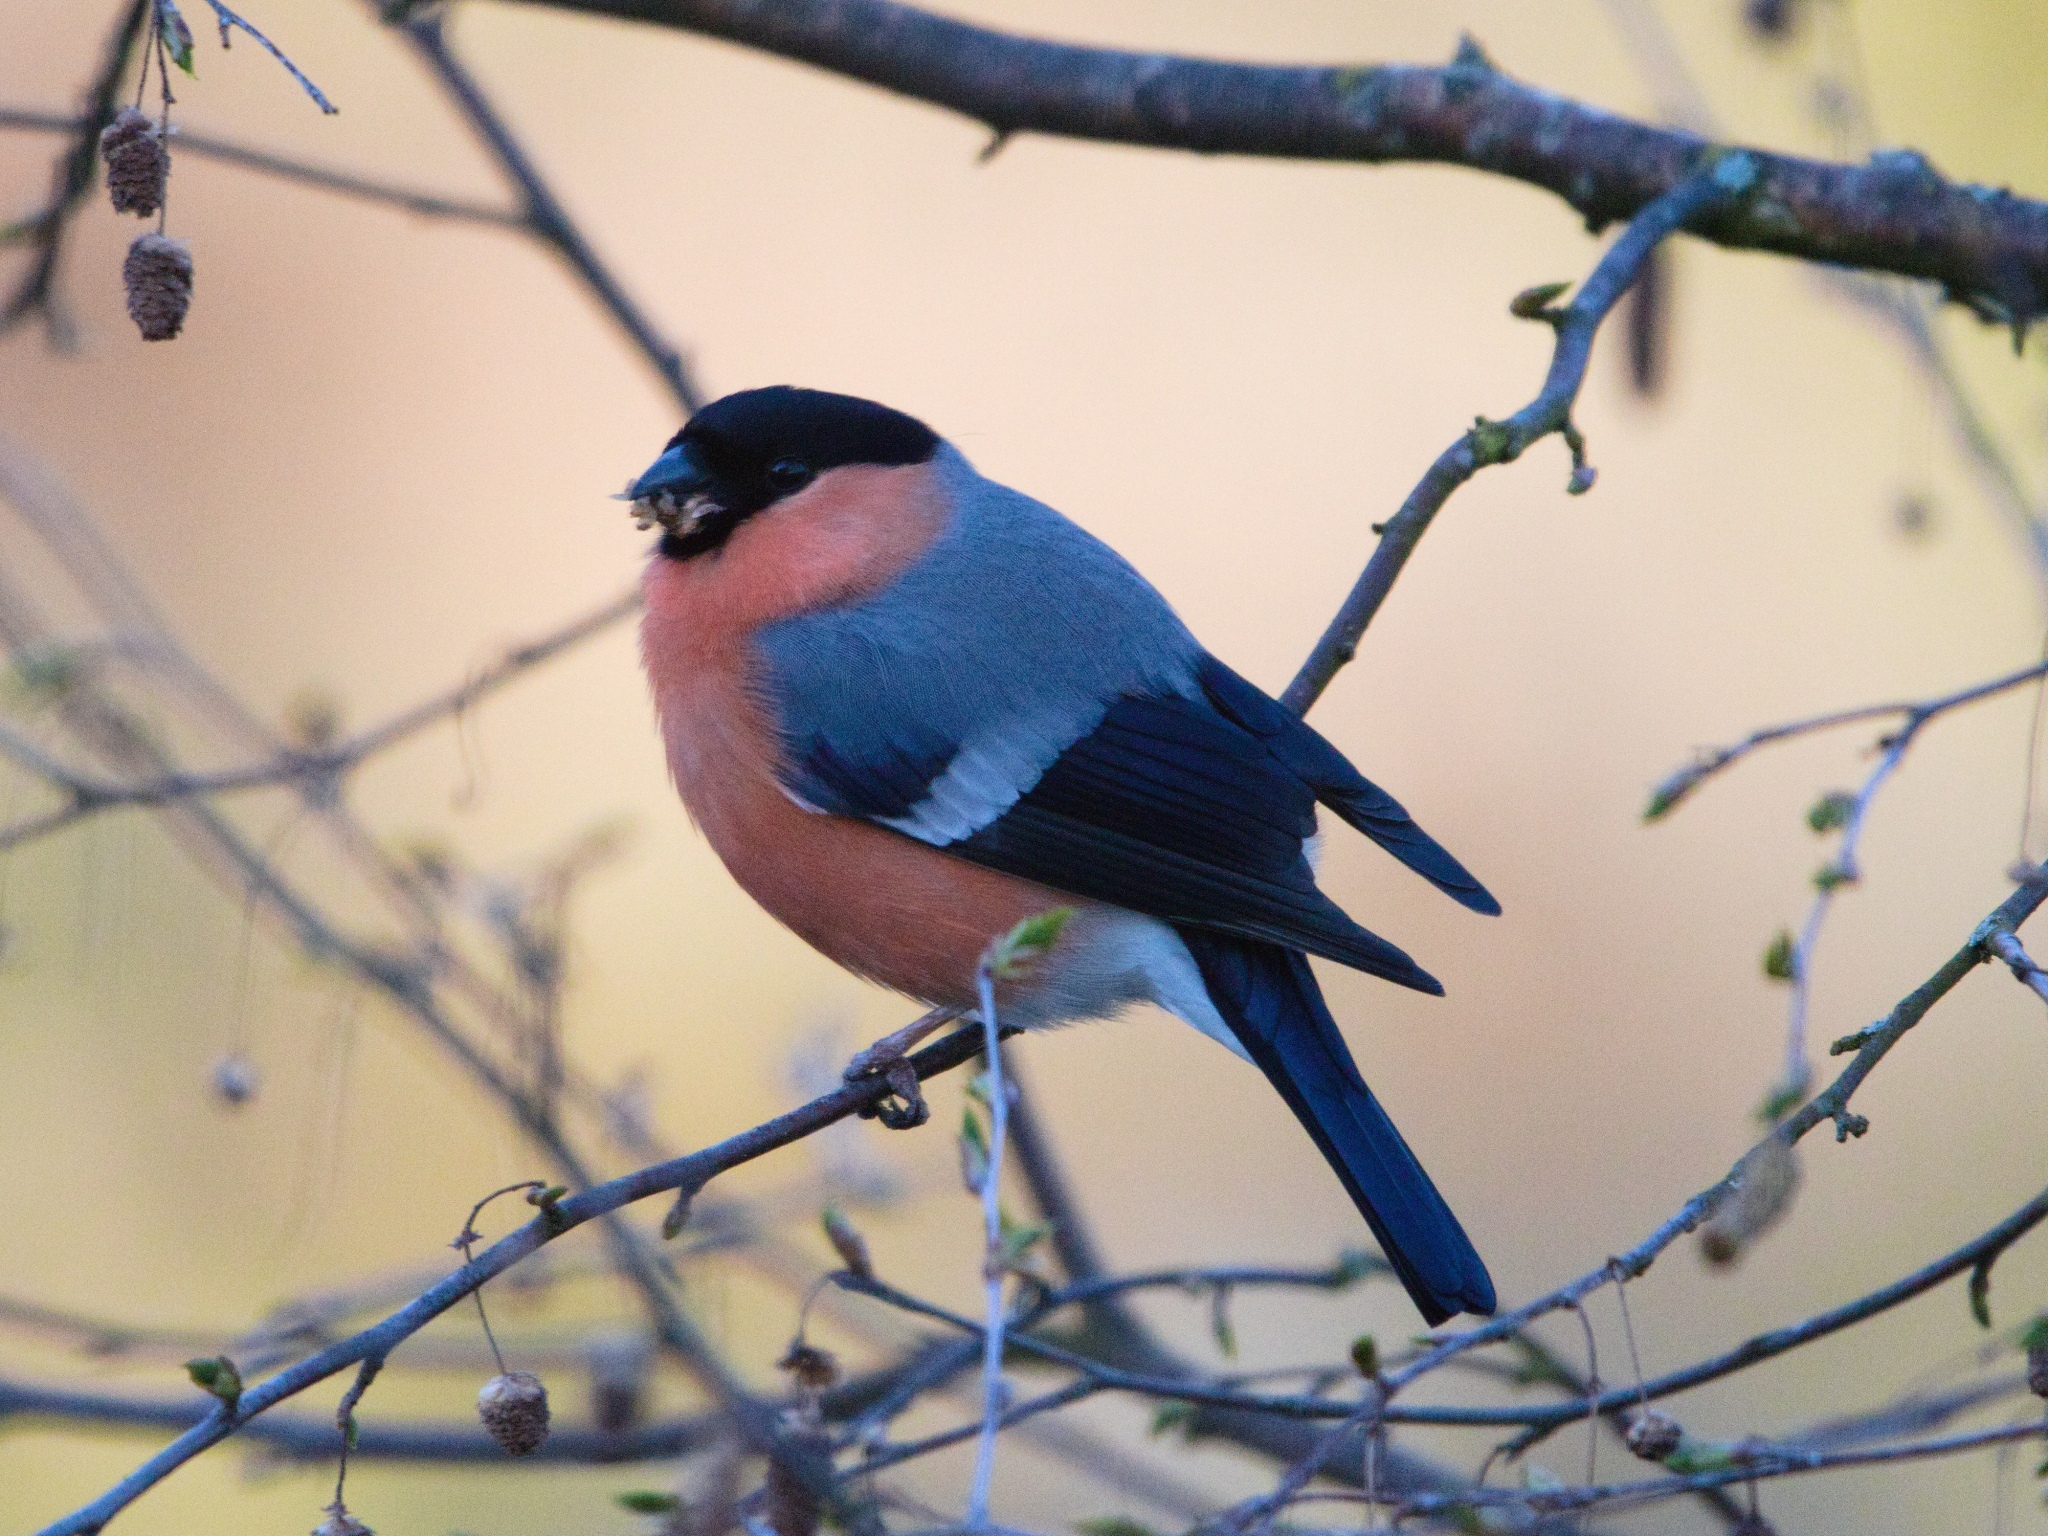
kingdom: Animalia
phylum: Chordata
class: Aves
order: Passeriformes
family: Fringillidae
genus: Pyrrhula
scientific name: Pyrrhula pyrrhula
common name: Eurasian bullfinch
